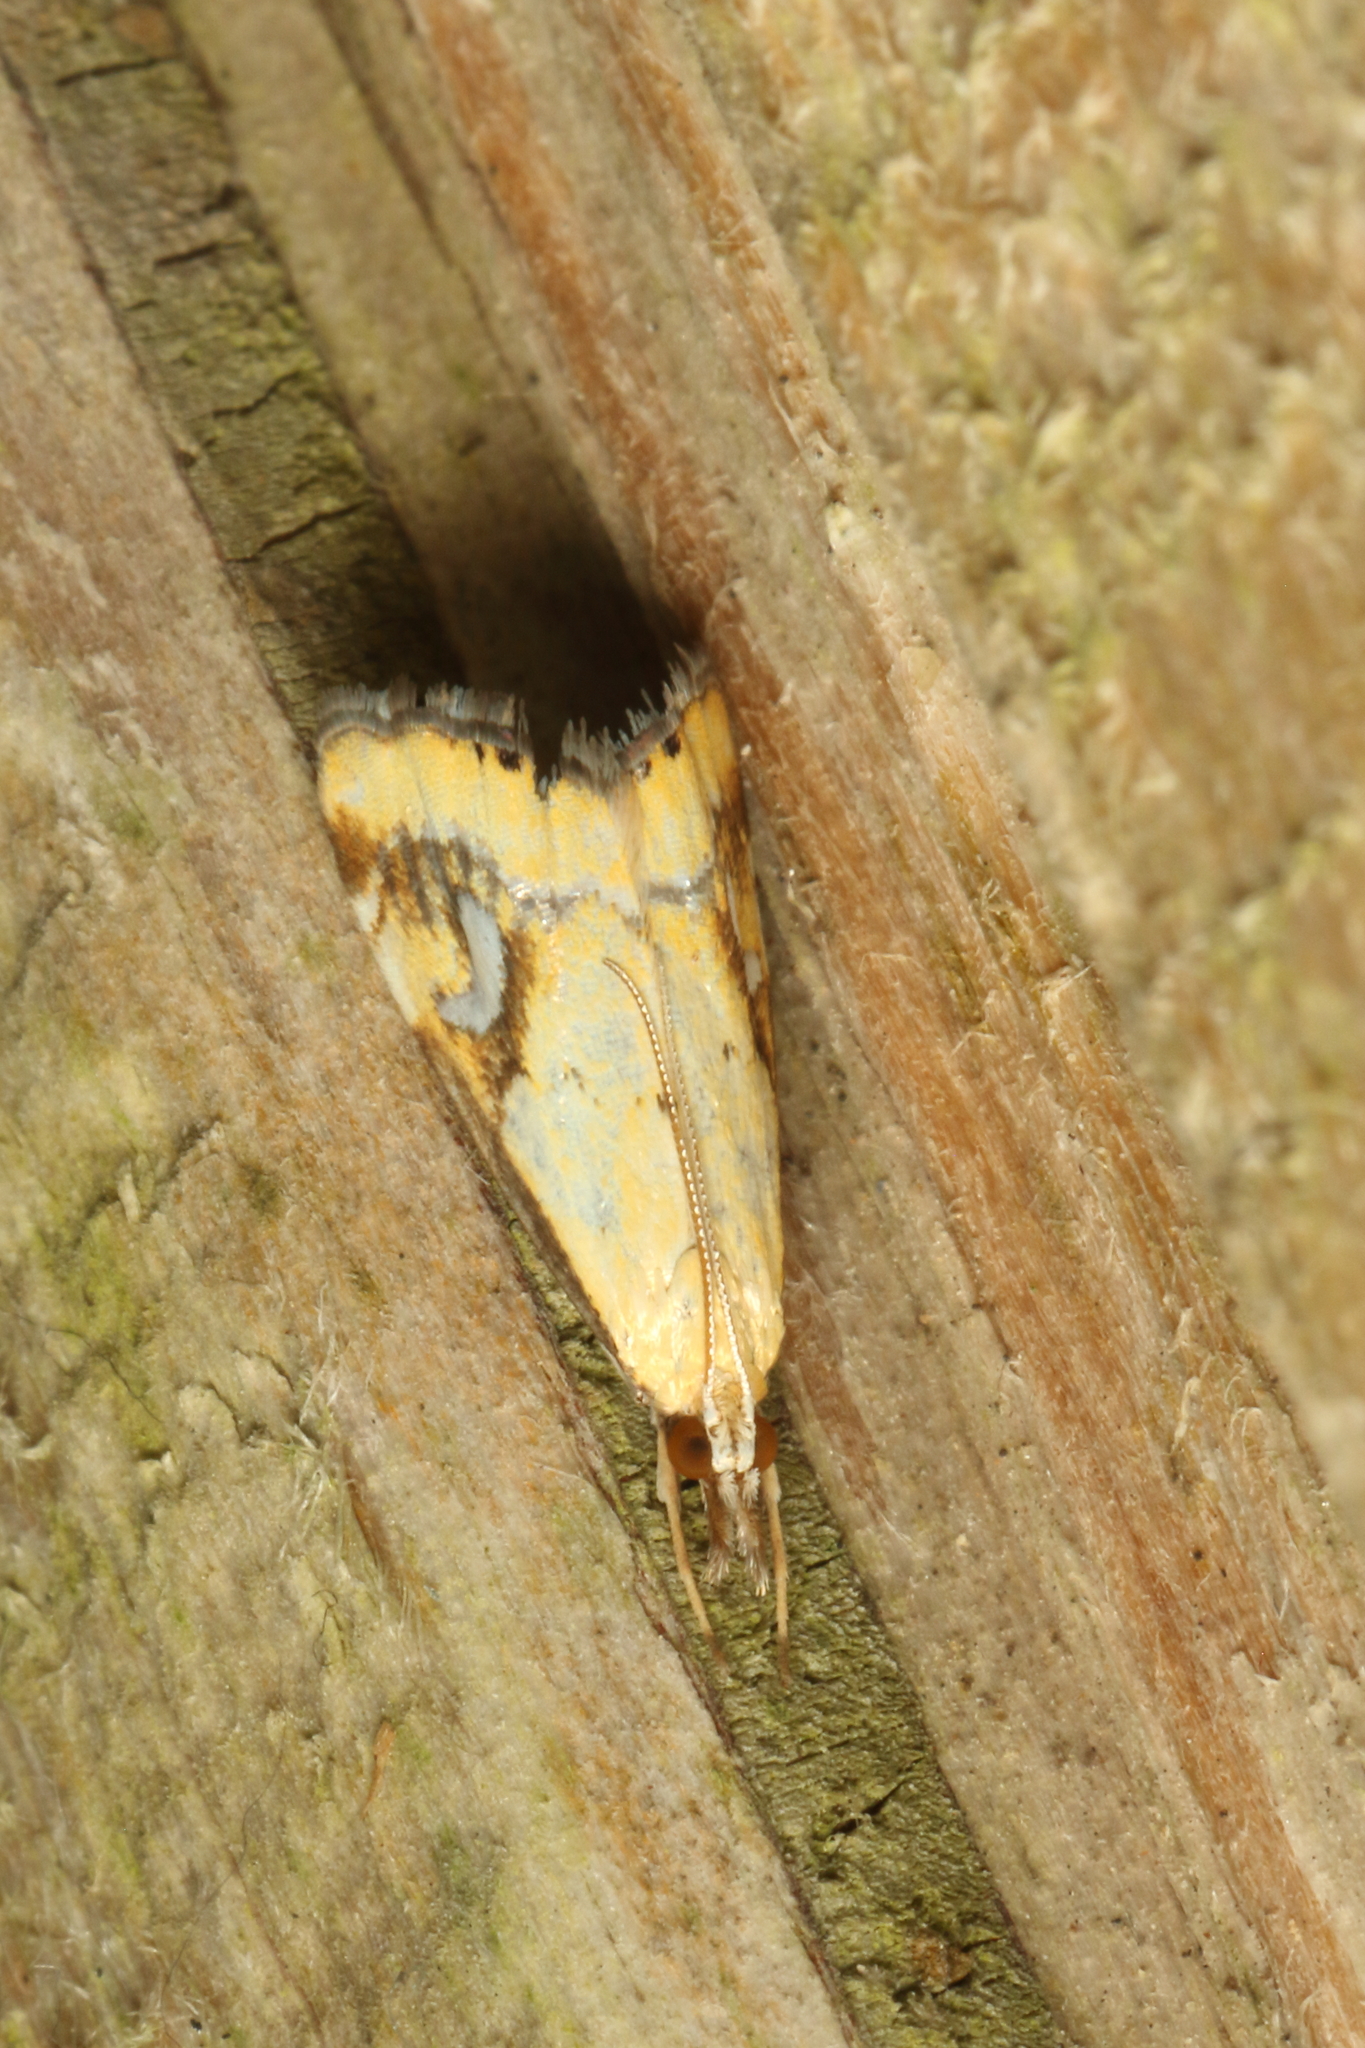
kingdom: Animalia
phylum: Arthropoda
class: Insecta
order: Lepidoptera
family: Crambidae
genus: Glaucocharis
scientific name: Glaucocharis lepidella
